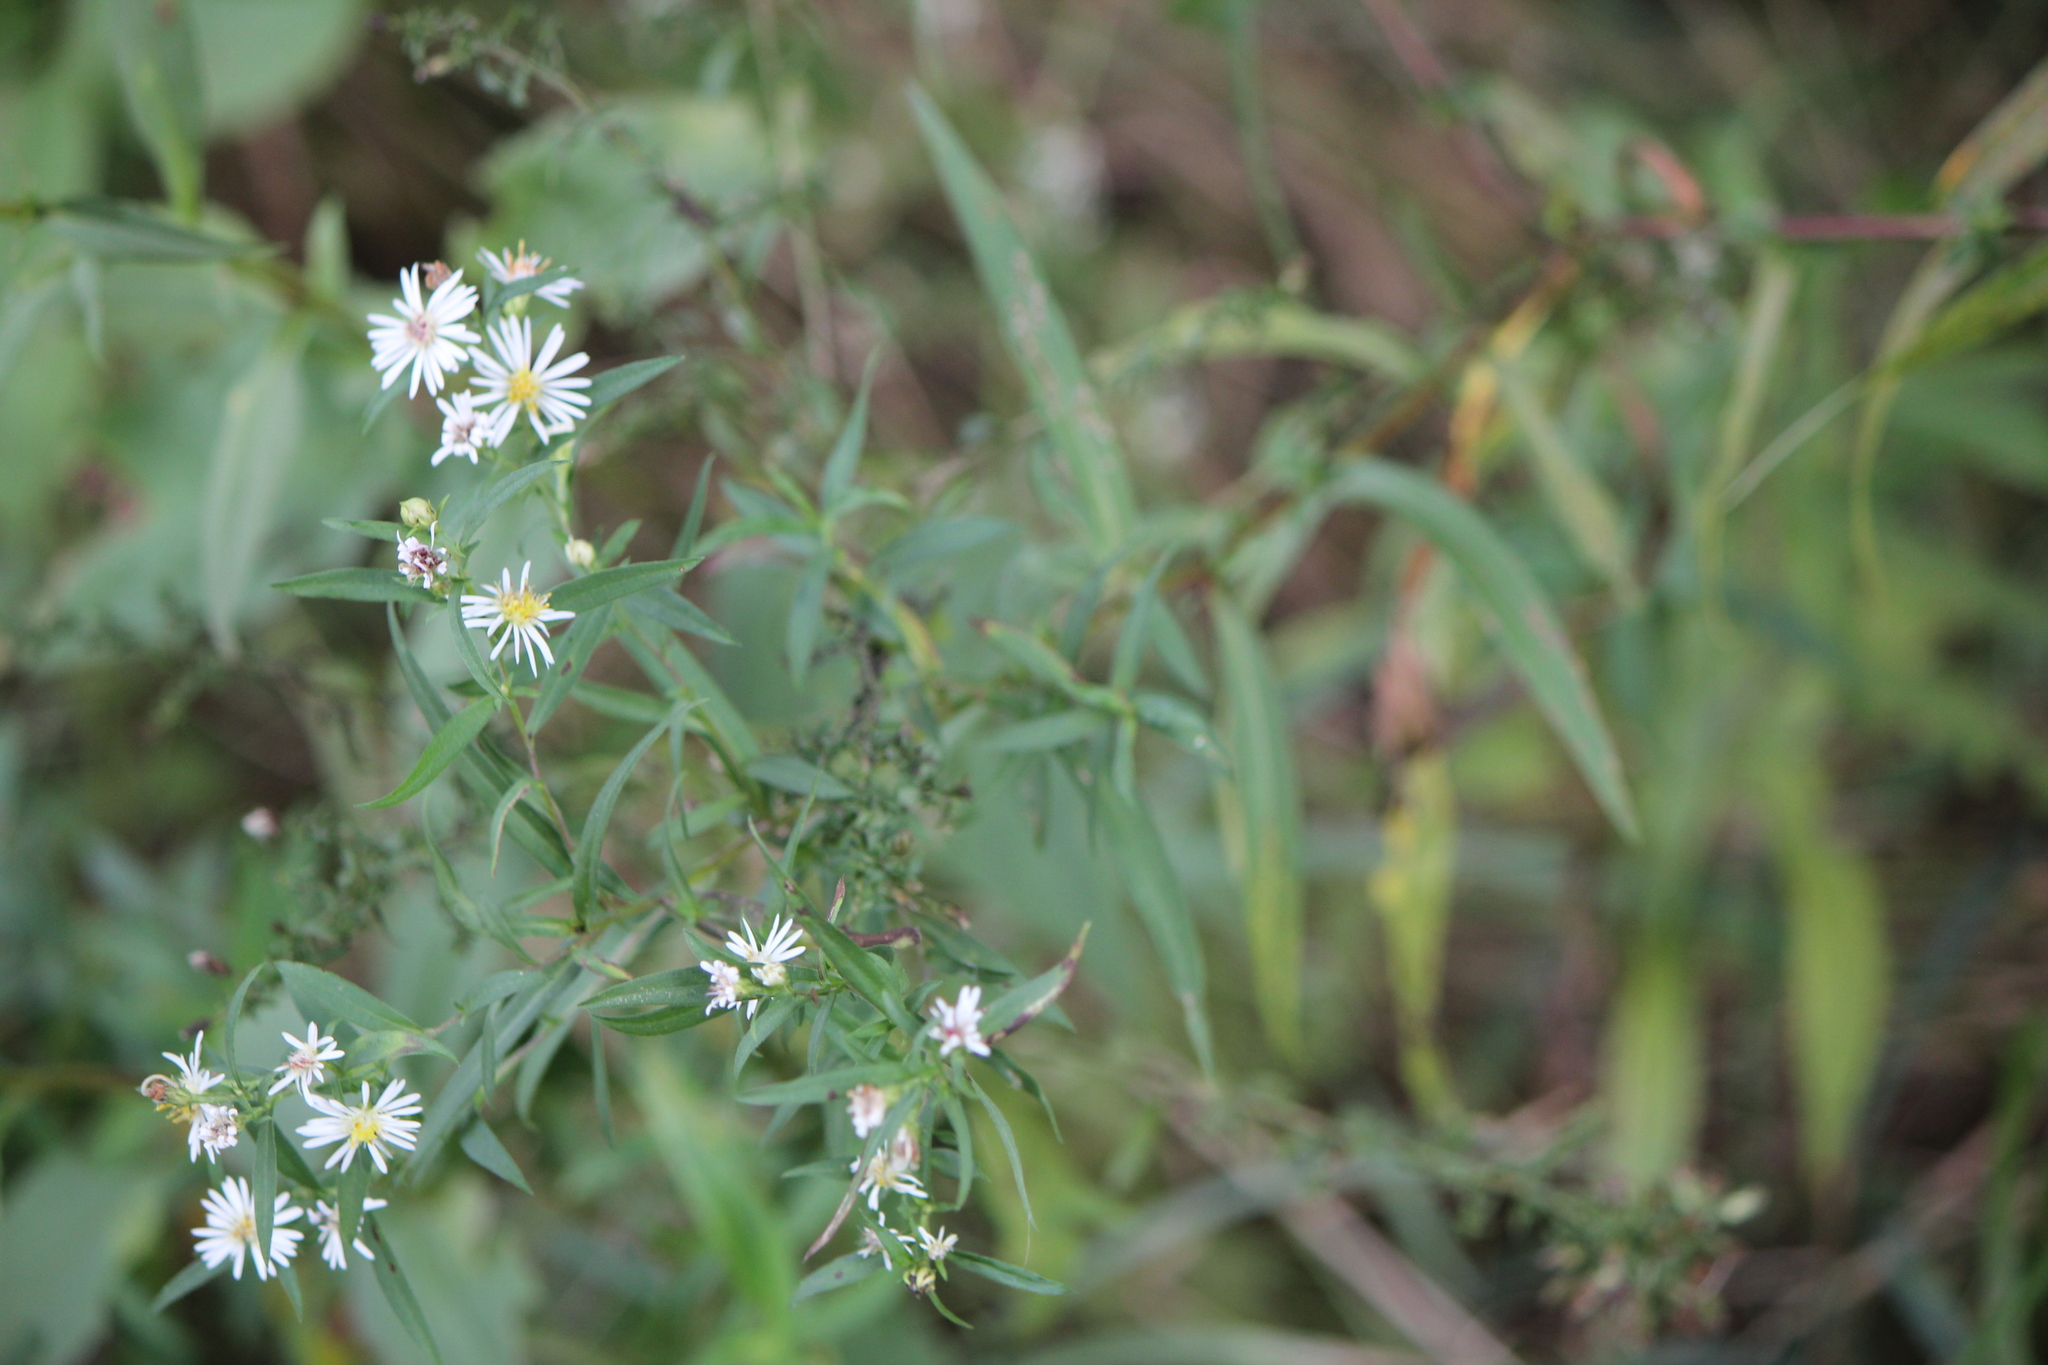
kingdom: Plantae
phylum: Tracheophyta
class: Magnoliopsida
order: Asterales
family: Asteraceae
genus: Symphyotrichum
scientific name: Symphyotrichum lanceolatum
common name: Panicled aster
